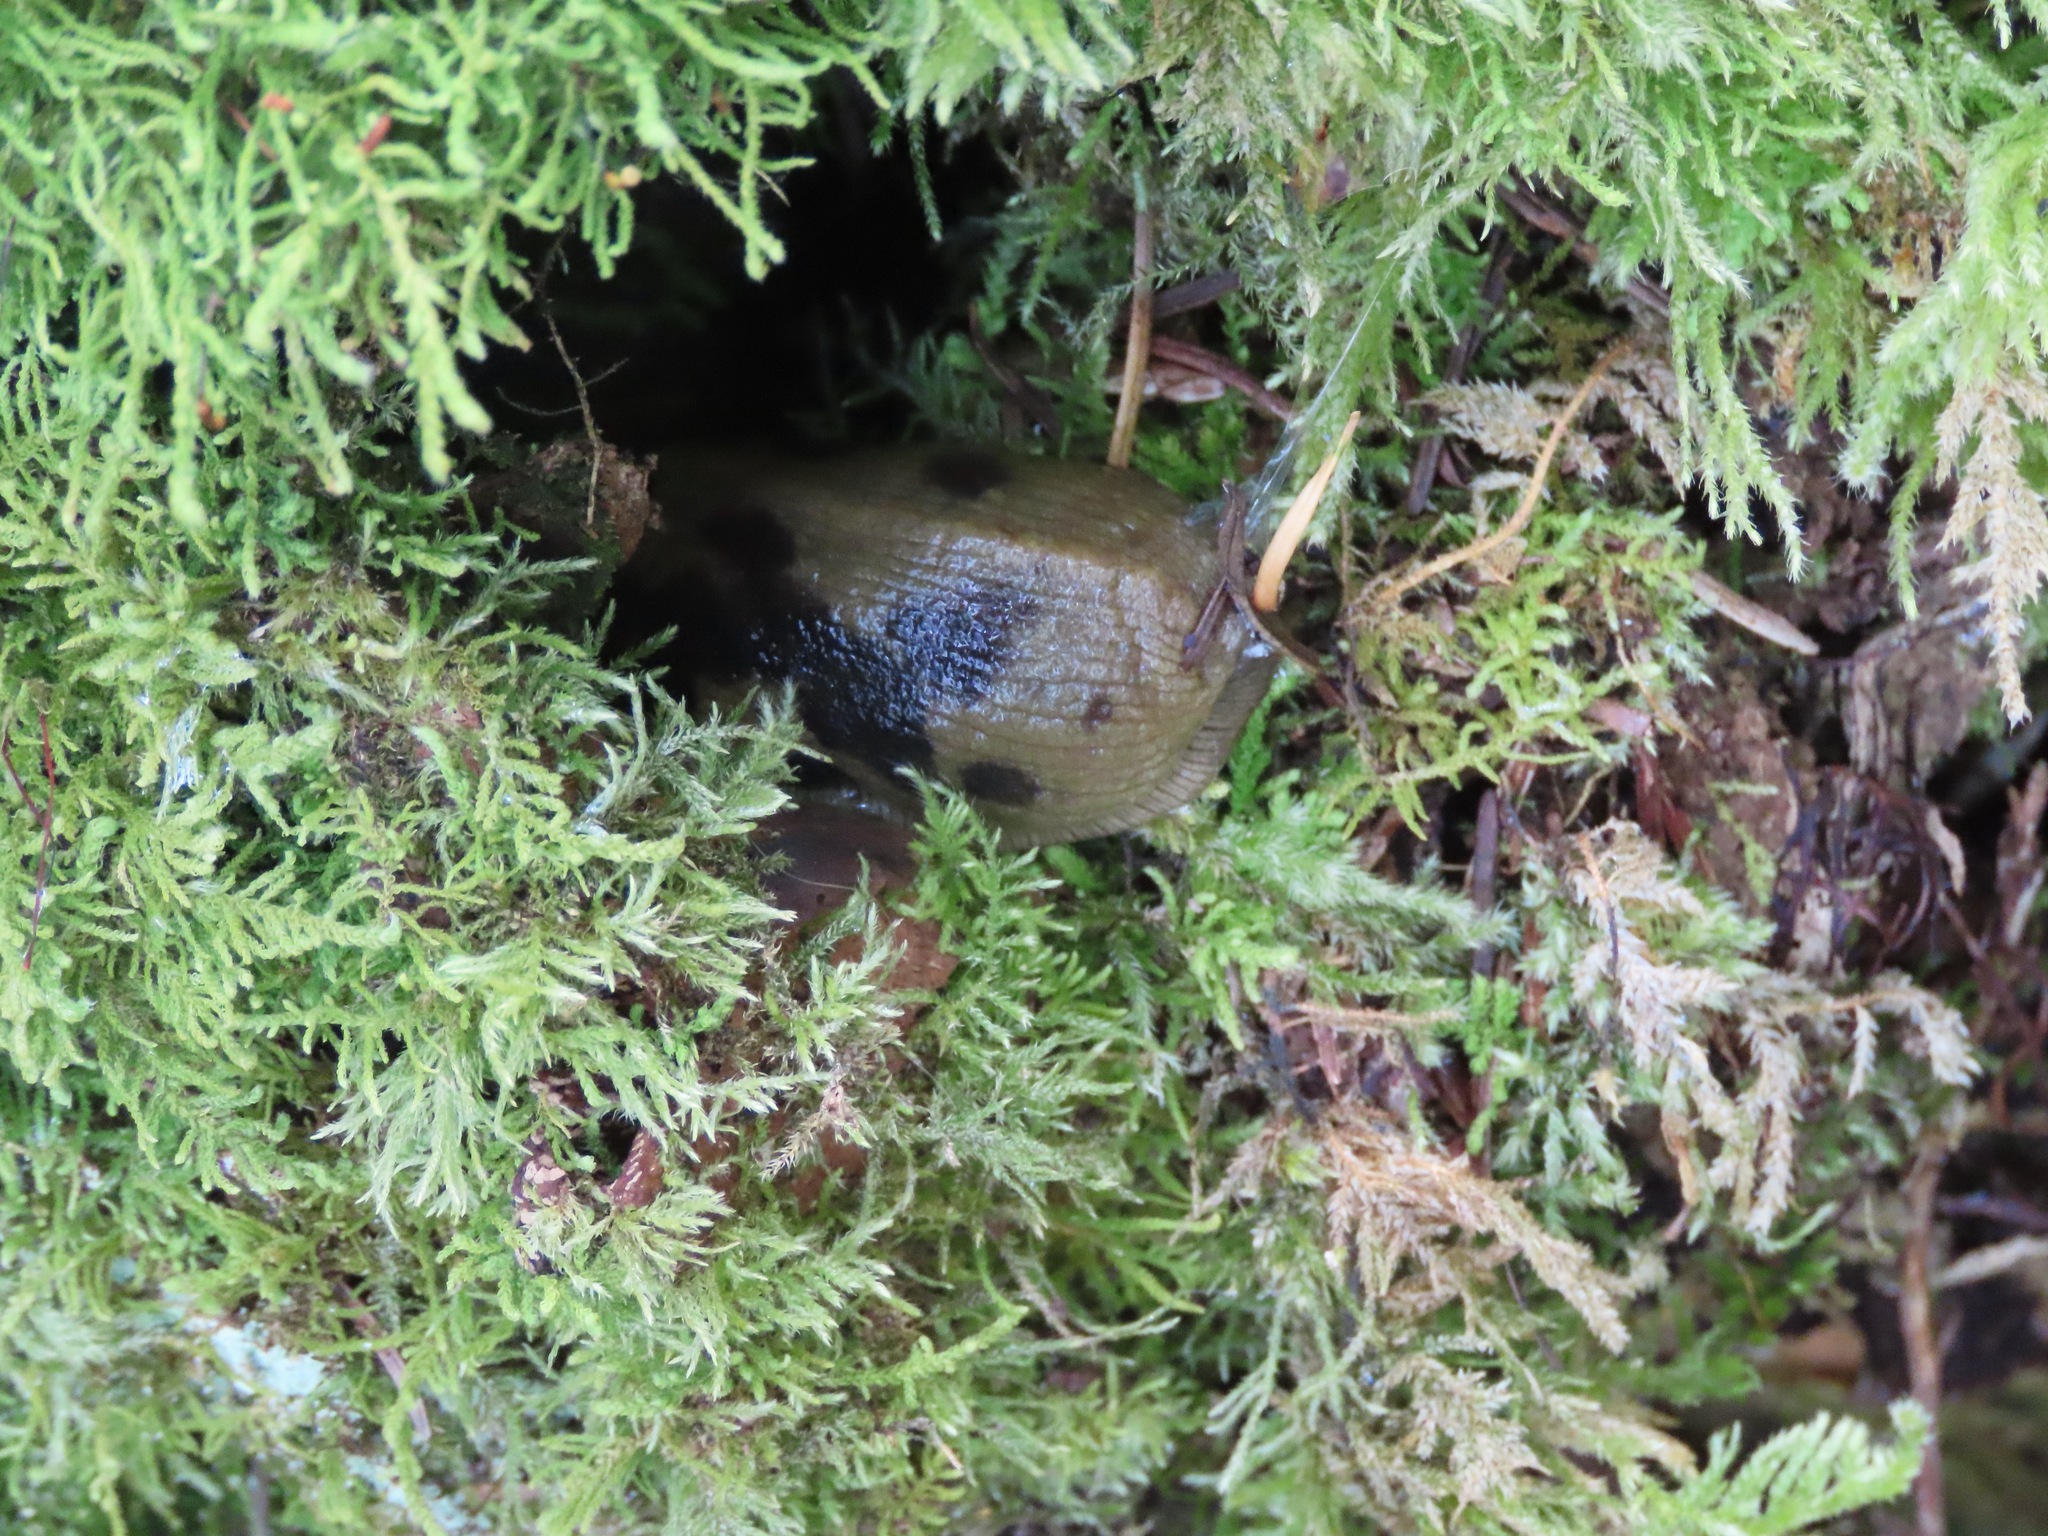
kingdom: Animalia
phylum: Mollusca
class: Gastropoda
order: Stylommatophora
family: Ariolimacidae
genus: Ariolimax
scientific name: Ariolimax columbianus
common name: Pacific banana slug
